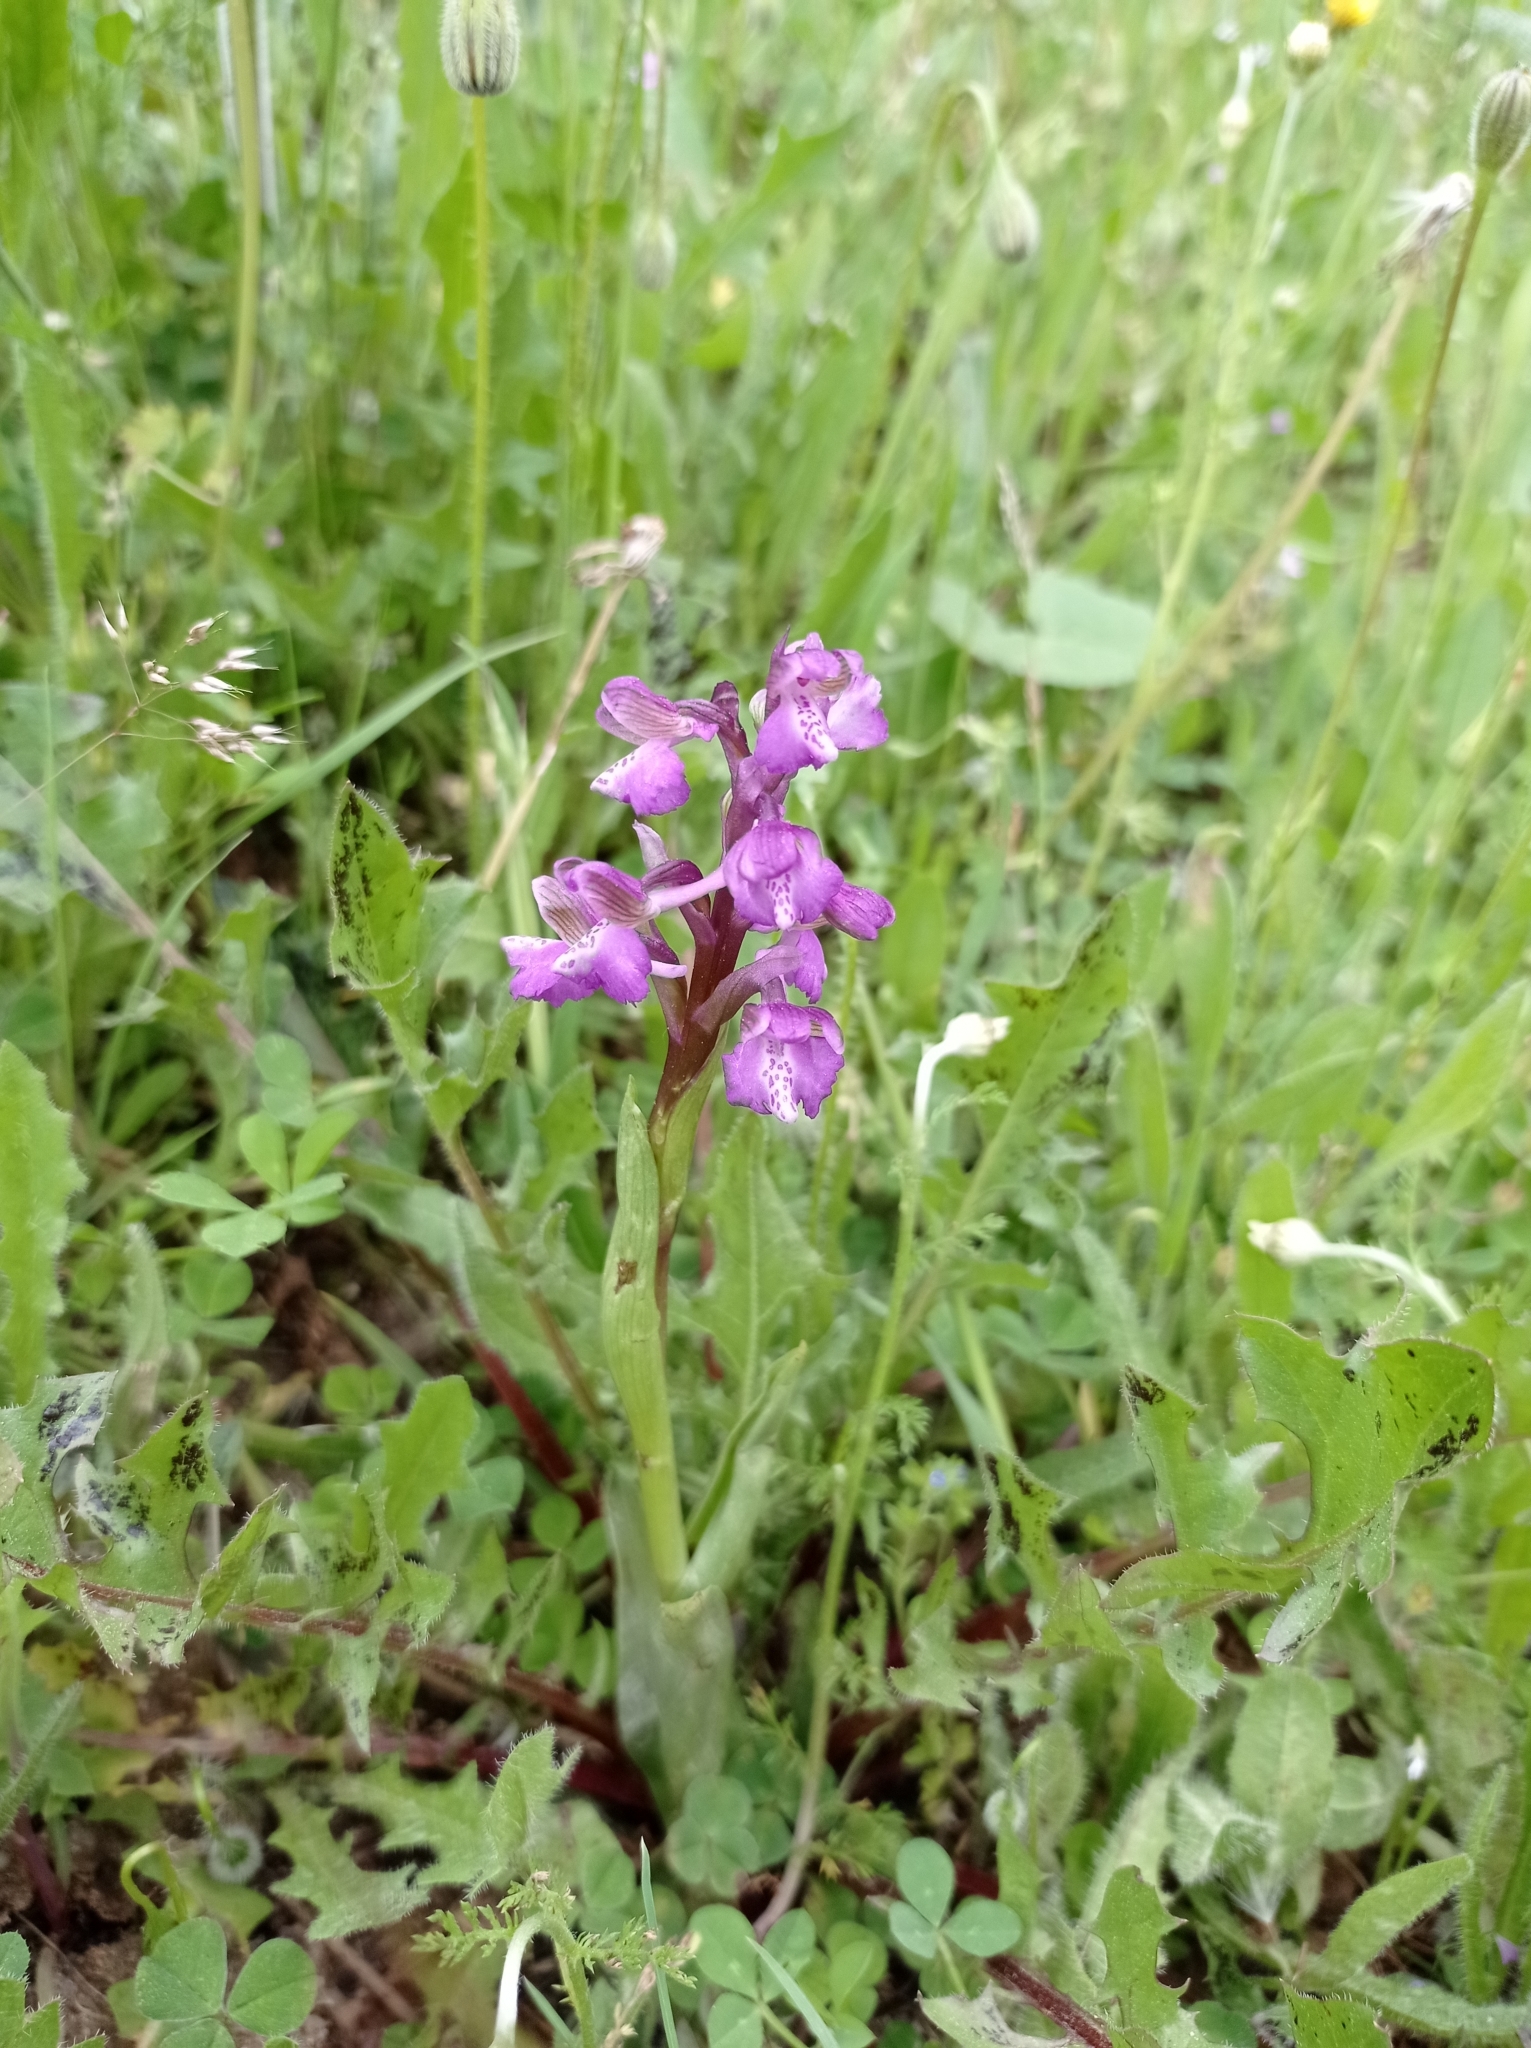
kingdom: Plantae
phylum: Tracheophyta
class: Liliopsida
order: Asparagales
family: Orchidaceae
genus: Anacamptis
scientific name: Anacamptis morio
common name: Green-winged orchid
